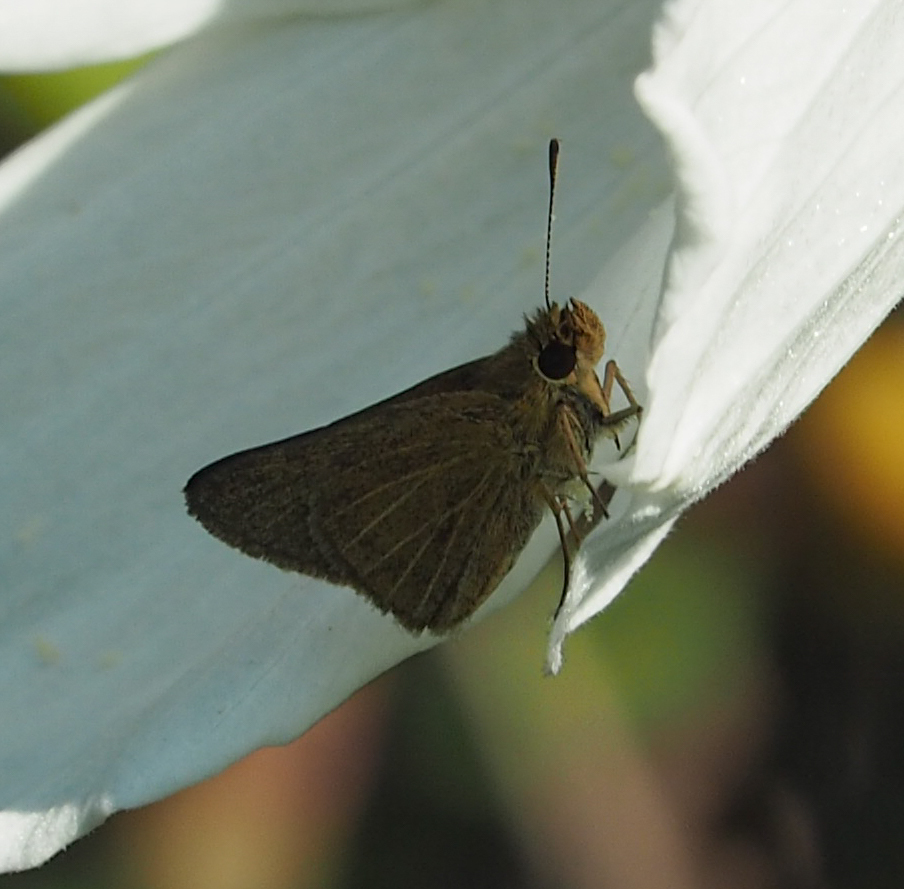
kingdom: Animalia
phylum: Arthropoda
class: Insecta
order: Lepidoptera
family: Hesperiidae
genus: Nastra
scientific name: Nastra lherminier
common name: Swarthy skipper
